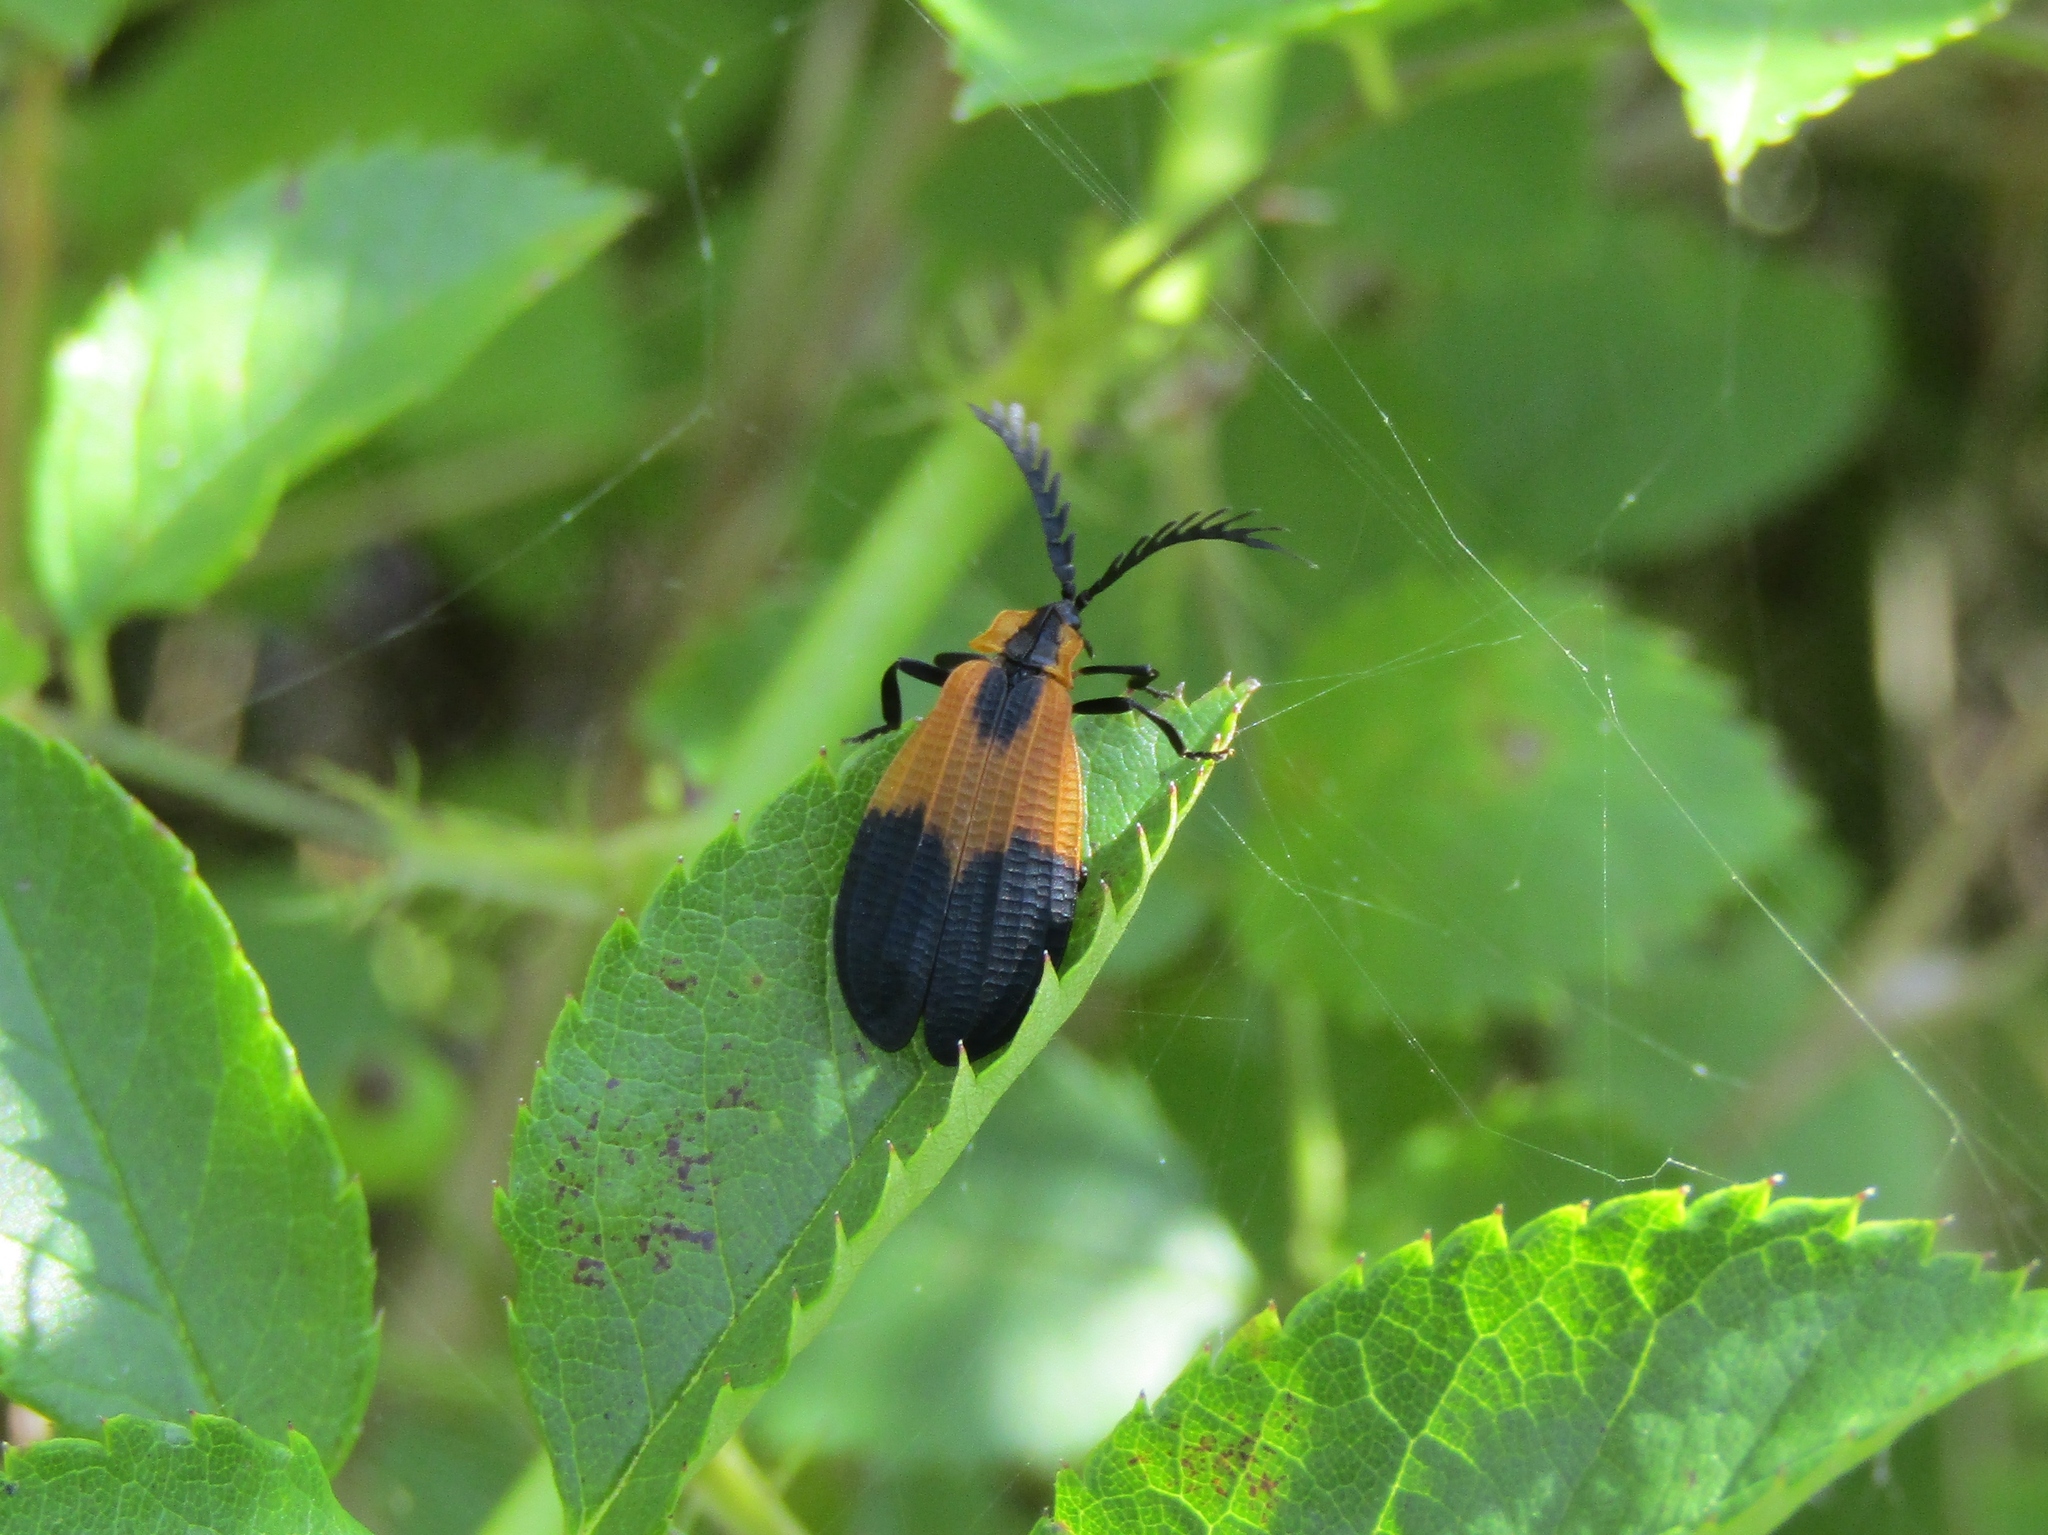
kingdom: Animalia
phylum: Arthropoda
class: Insecta
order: Coleoptera
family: Lycidae
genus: Caenia
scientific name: Caenia dimidiata
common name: Terminal net-winged beetle
